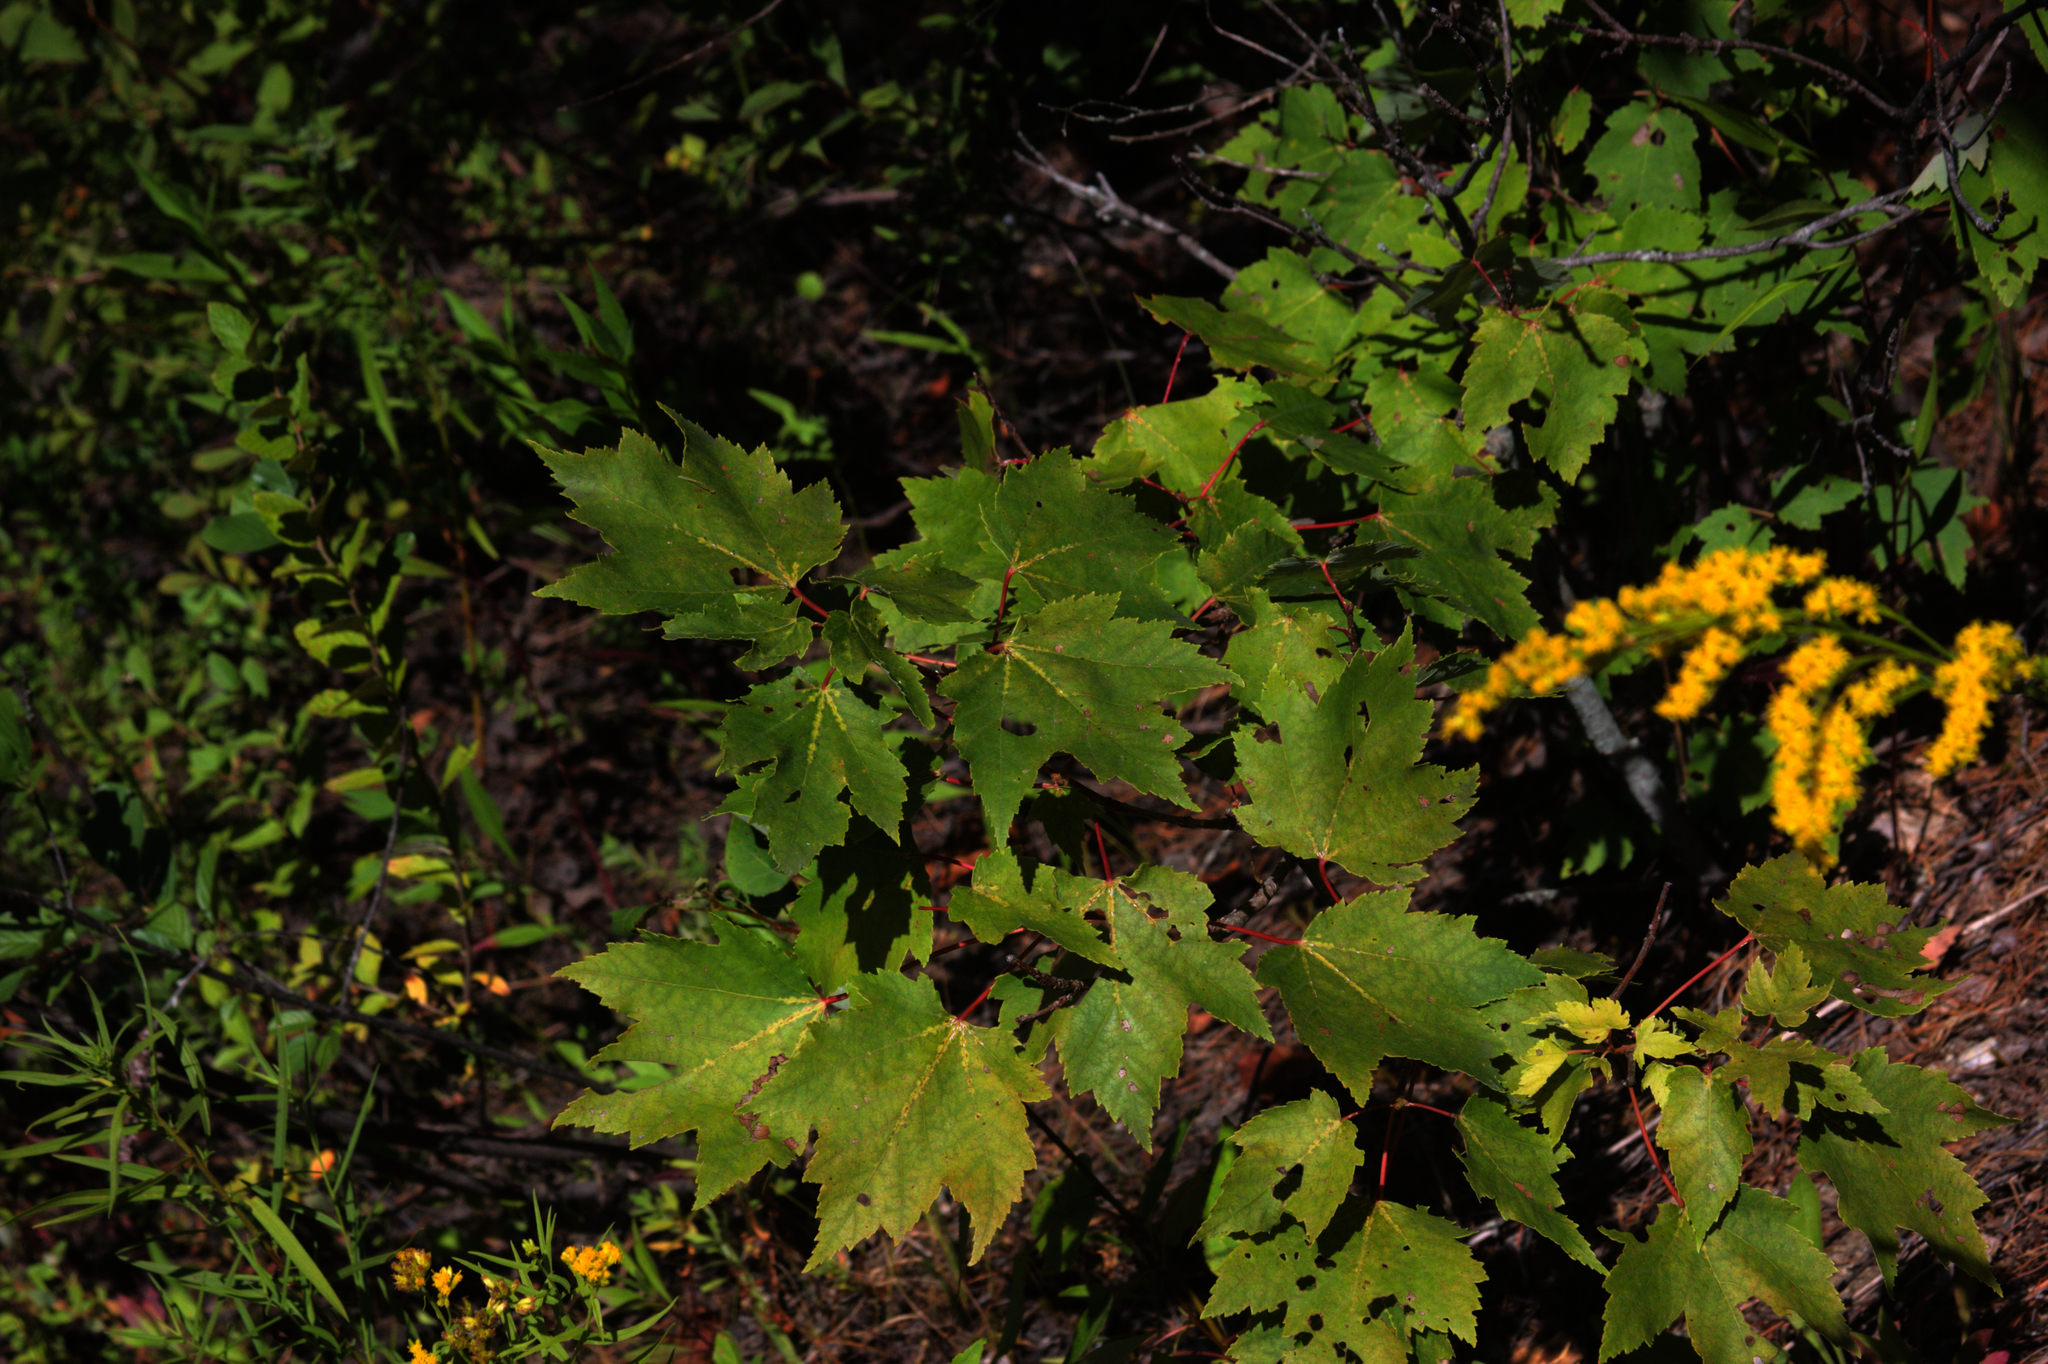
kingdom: Plantae
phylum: Tracheophyta
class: Magnoliopsida
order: Sapindales
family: Sapindaceae
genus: Acer
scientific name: Acer rubrum
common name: Red maple
